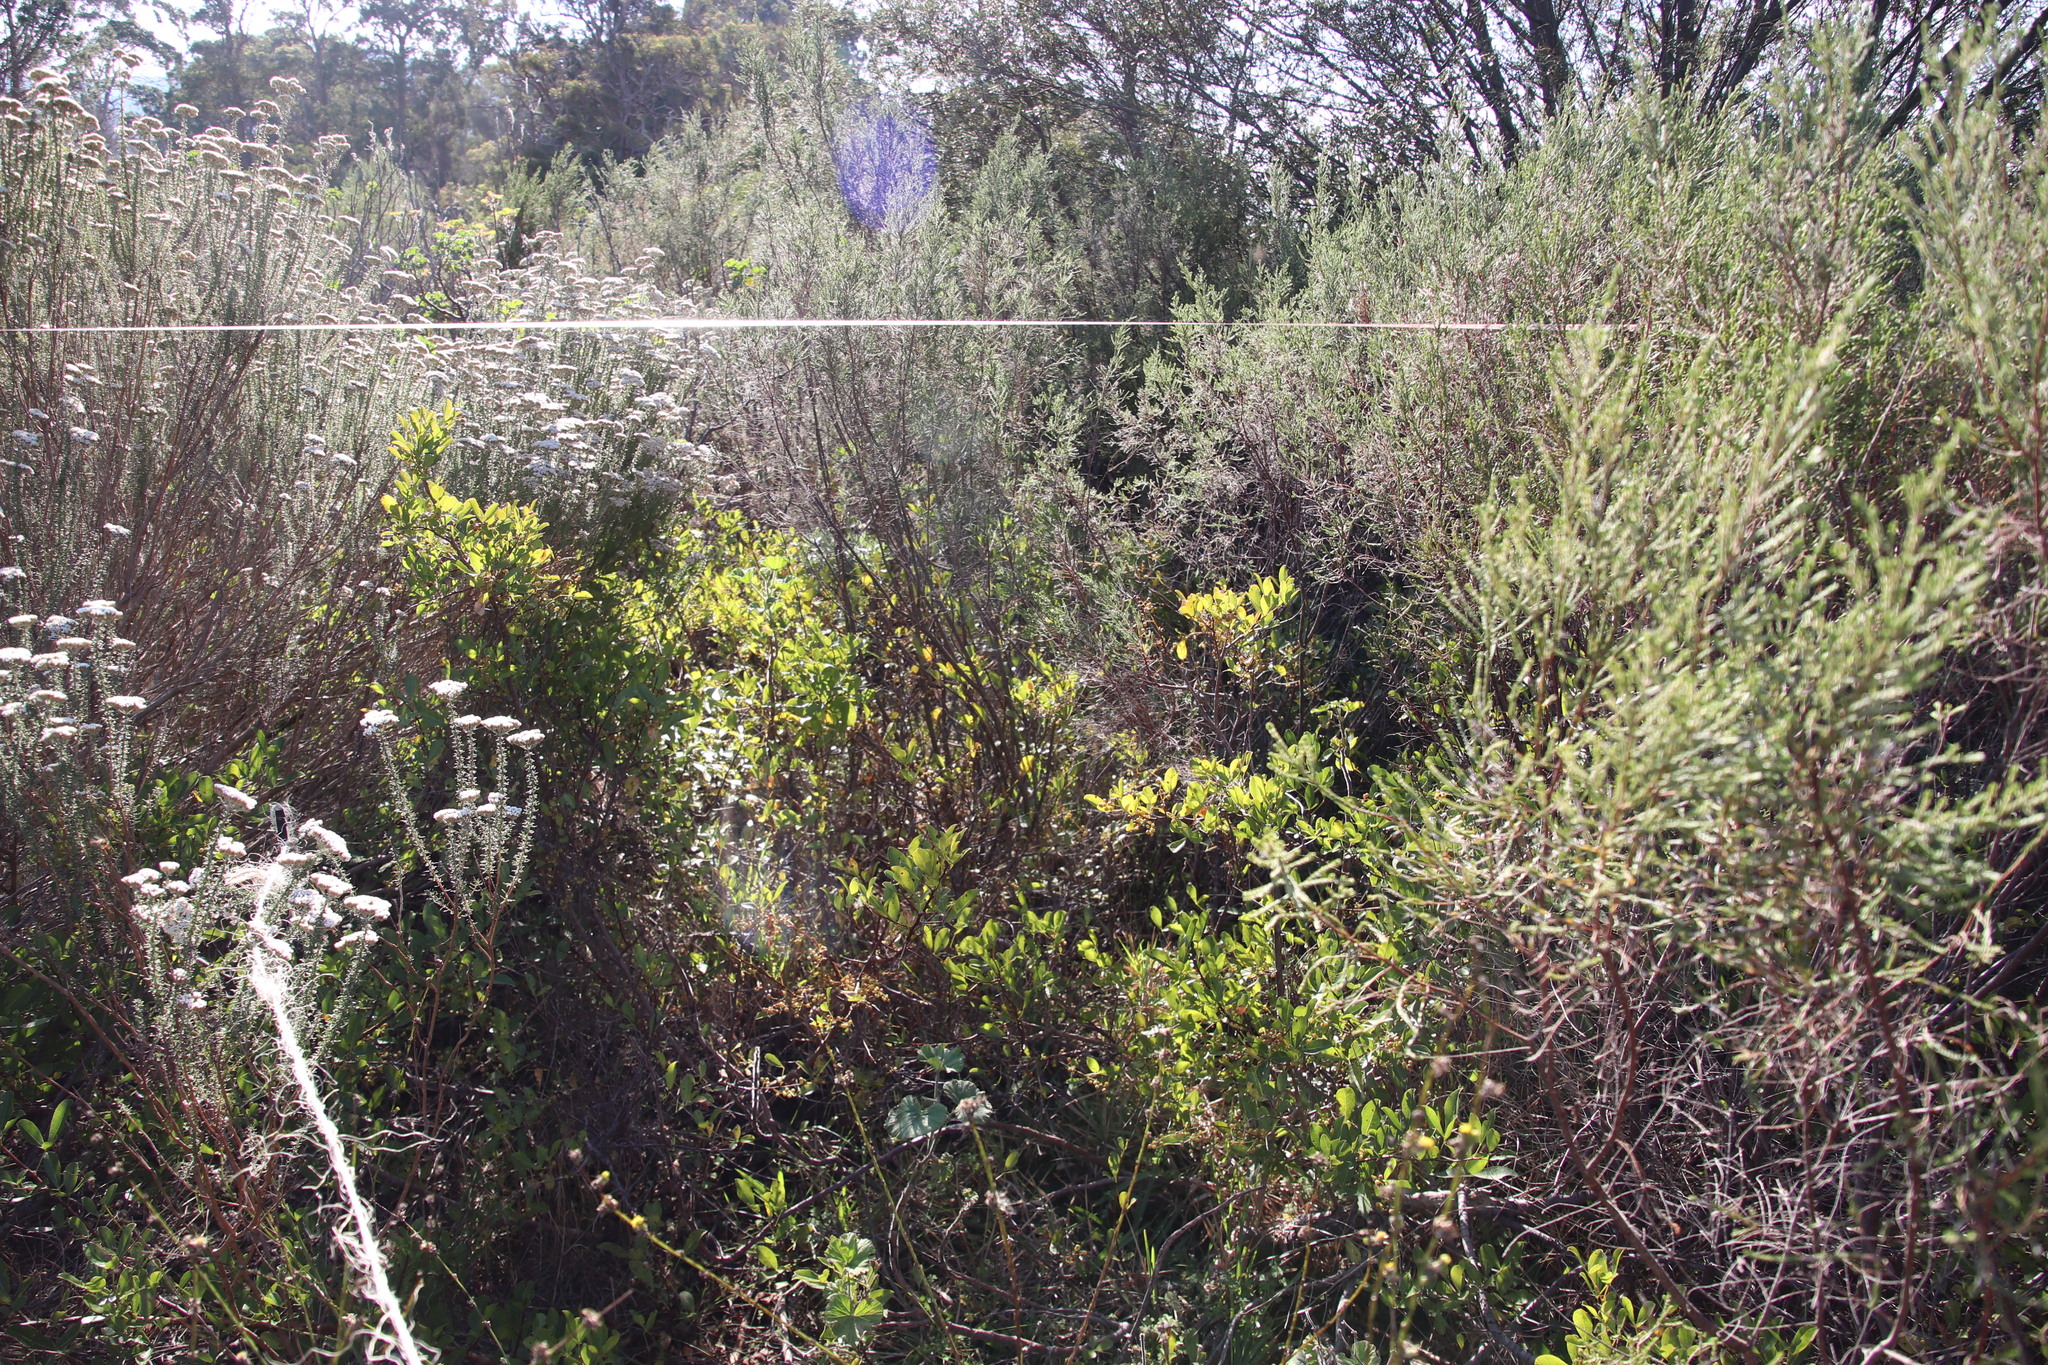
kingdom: Plantae
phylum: Tracheophyta
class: Magnoliopsida
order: Sapindales
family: Anacardiaceae
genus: Searsia
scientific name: Searsia laevigata
